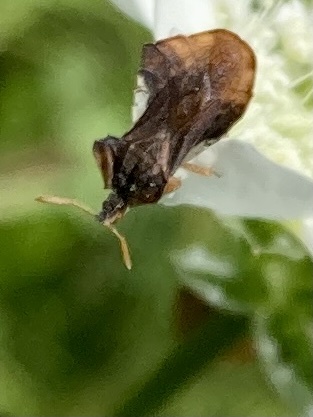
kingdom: Animalia
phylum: Arthropoda
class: Insecta
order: Hemiptera
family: Reduviidae
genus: Phymata
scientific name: Phymata crassipes
